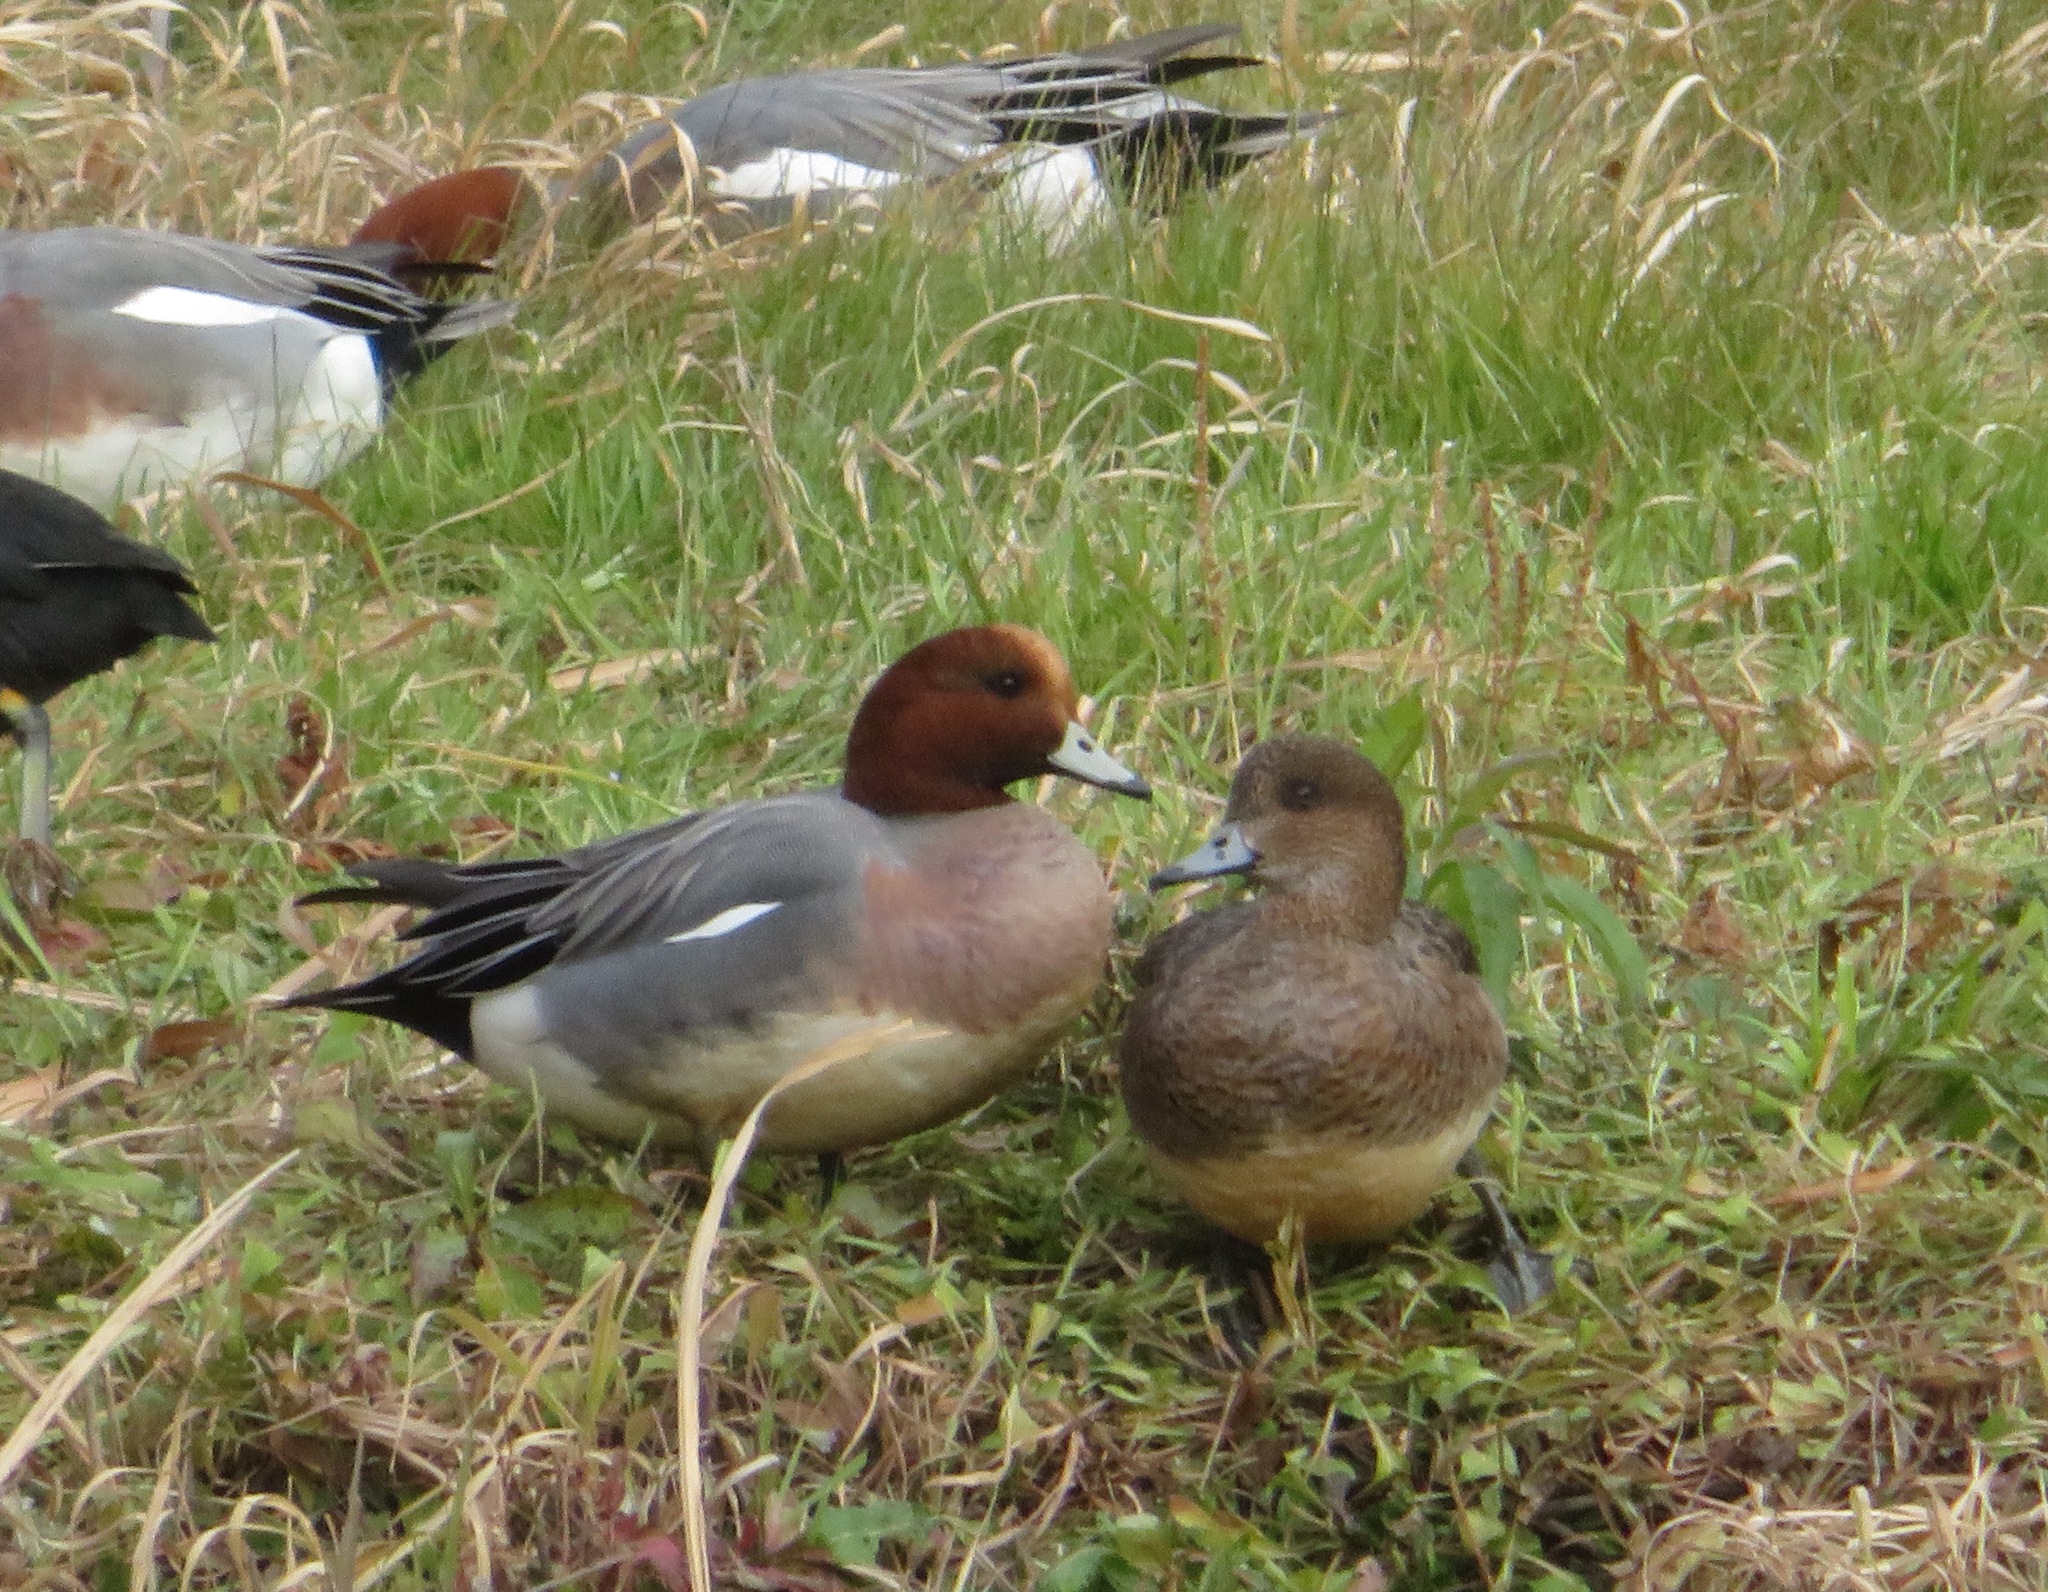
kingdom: Animalia
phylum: Chordata
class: Aves
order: Anseriformes
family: Anatidae
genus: Mareca
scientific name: Mareca penelope
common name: Eurasian wigeon
